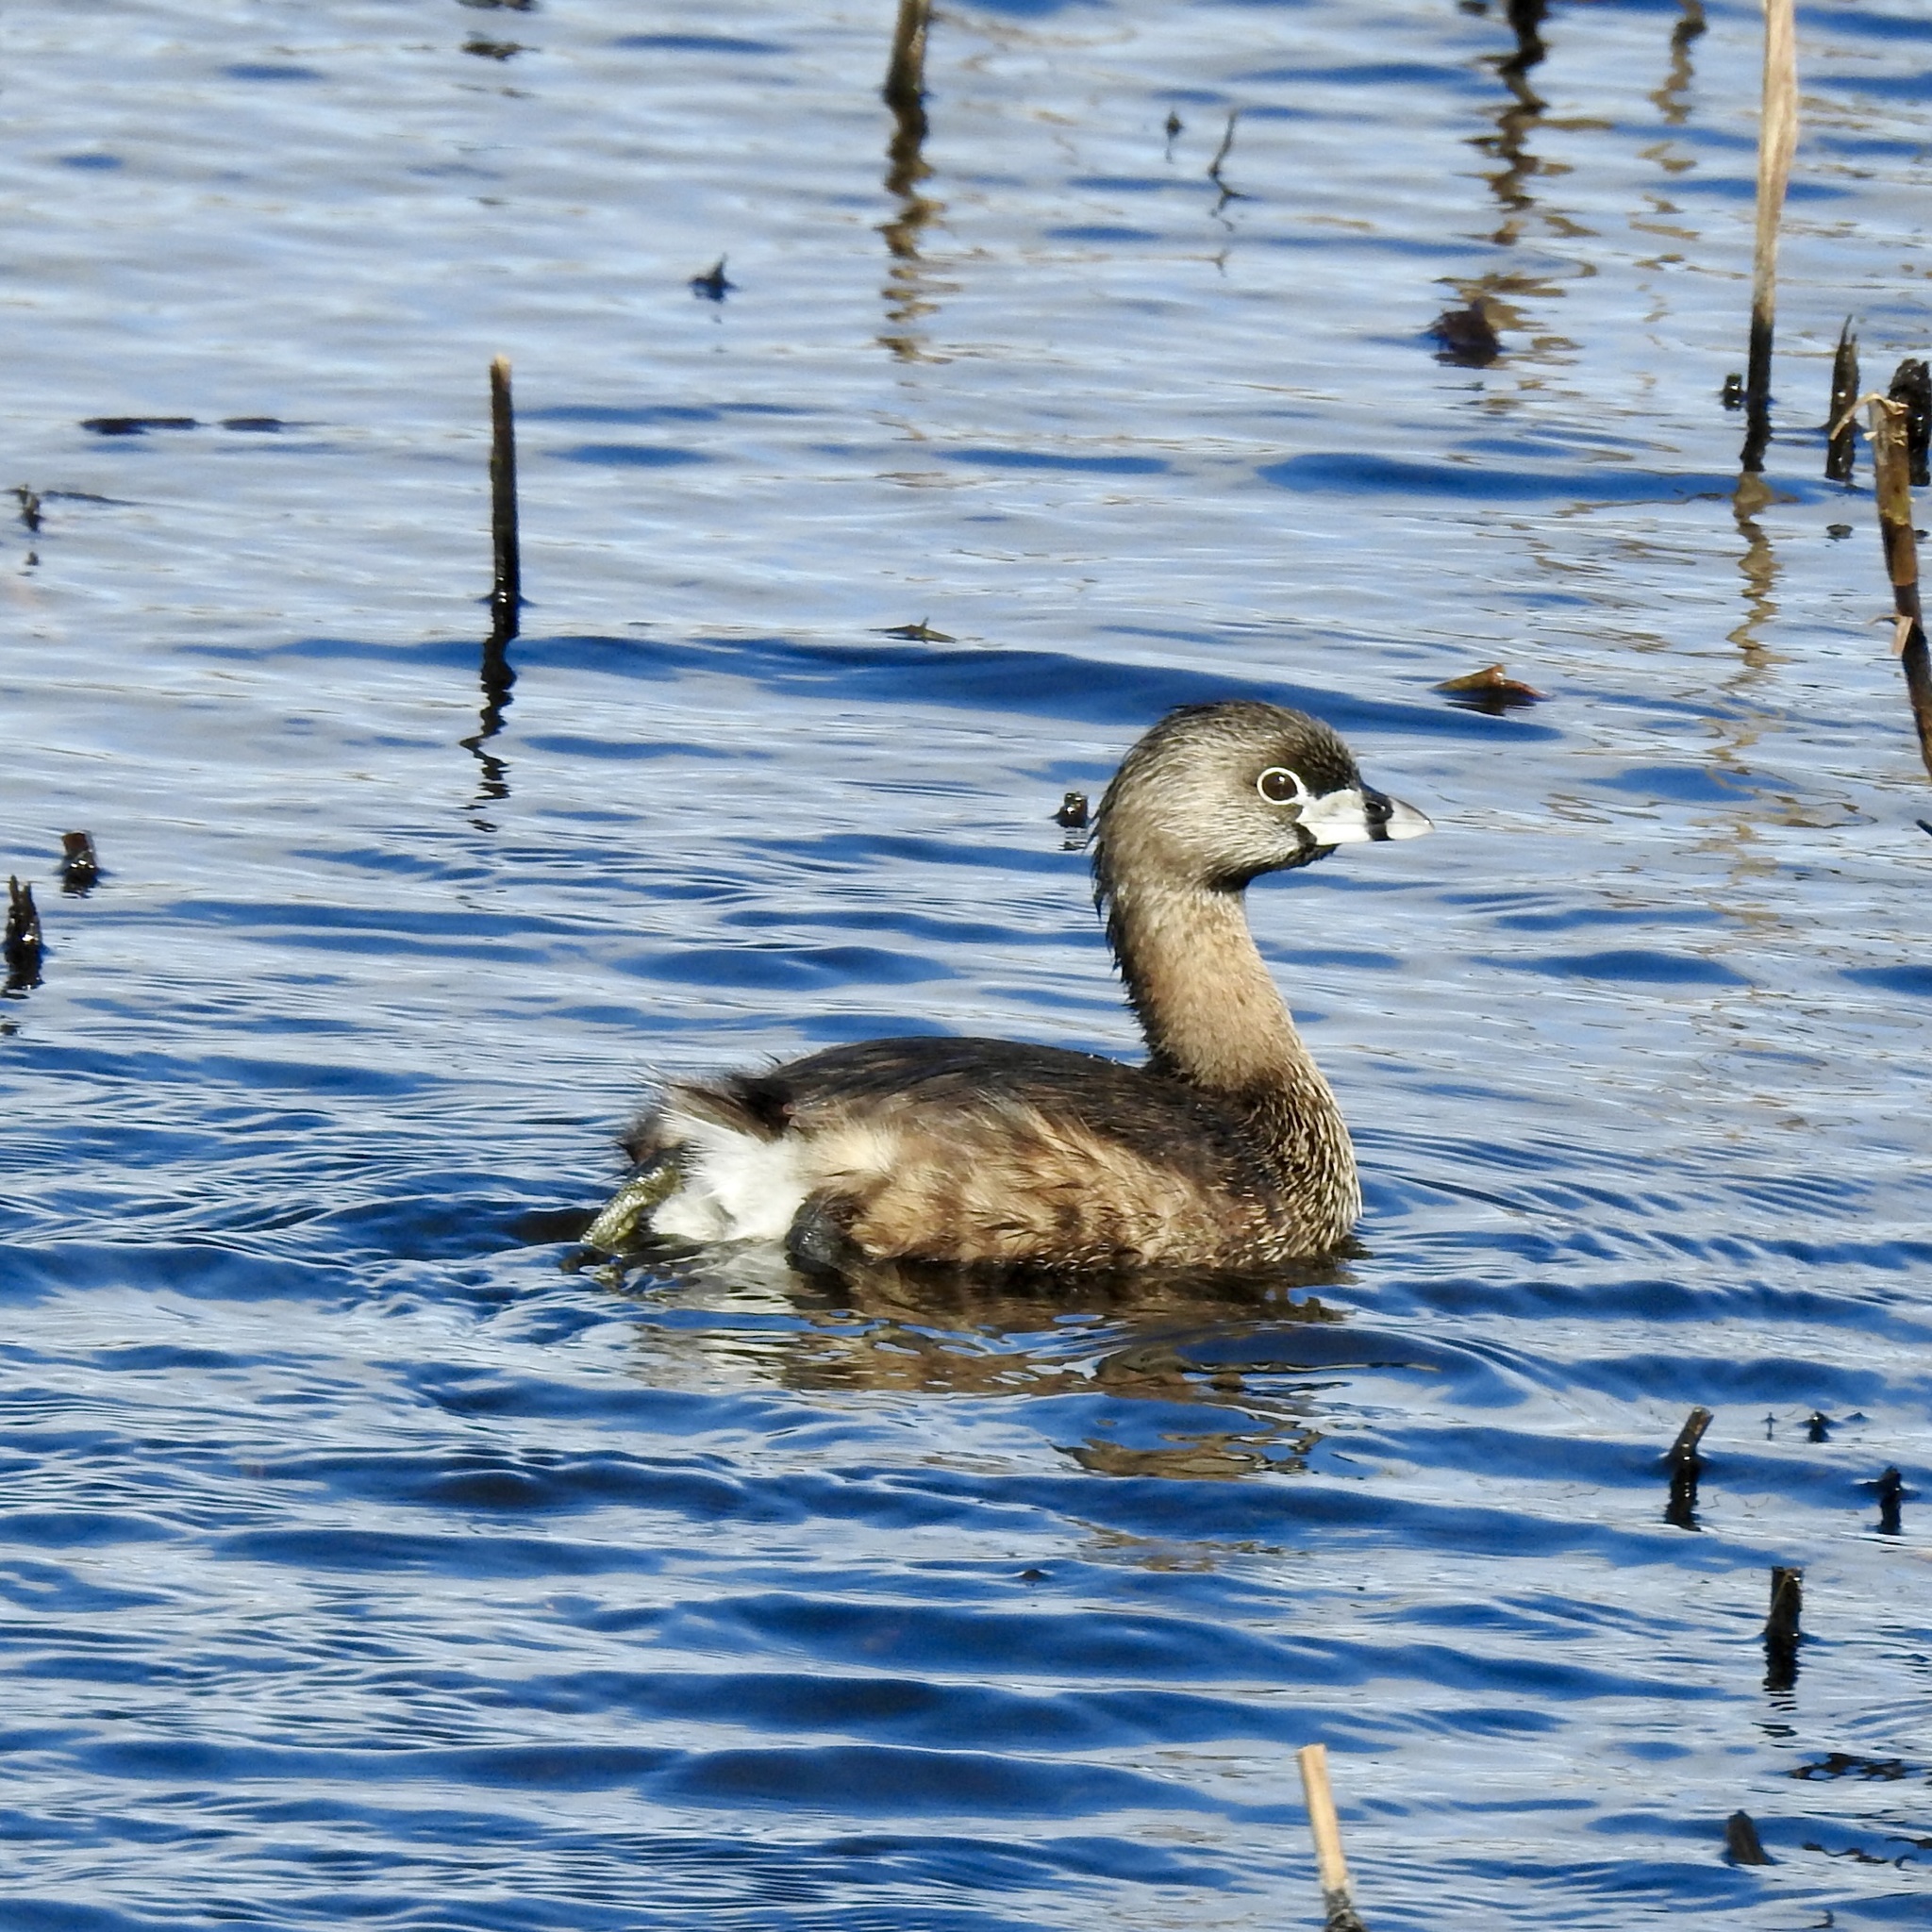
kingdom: Animalia
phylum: Chordata
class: Aves
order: Podicipediformes
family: Podicipedidae
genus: Podilymbus
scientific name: Podilymbus podiceps
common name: Pied-billed grebe
